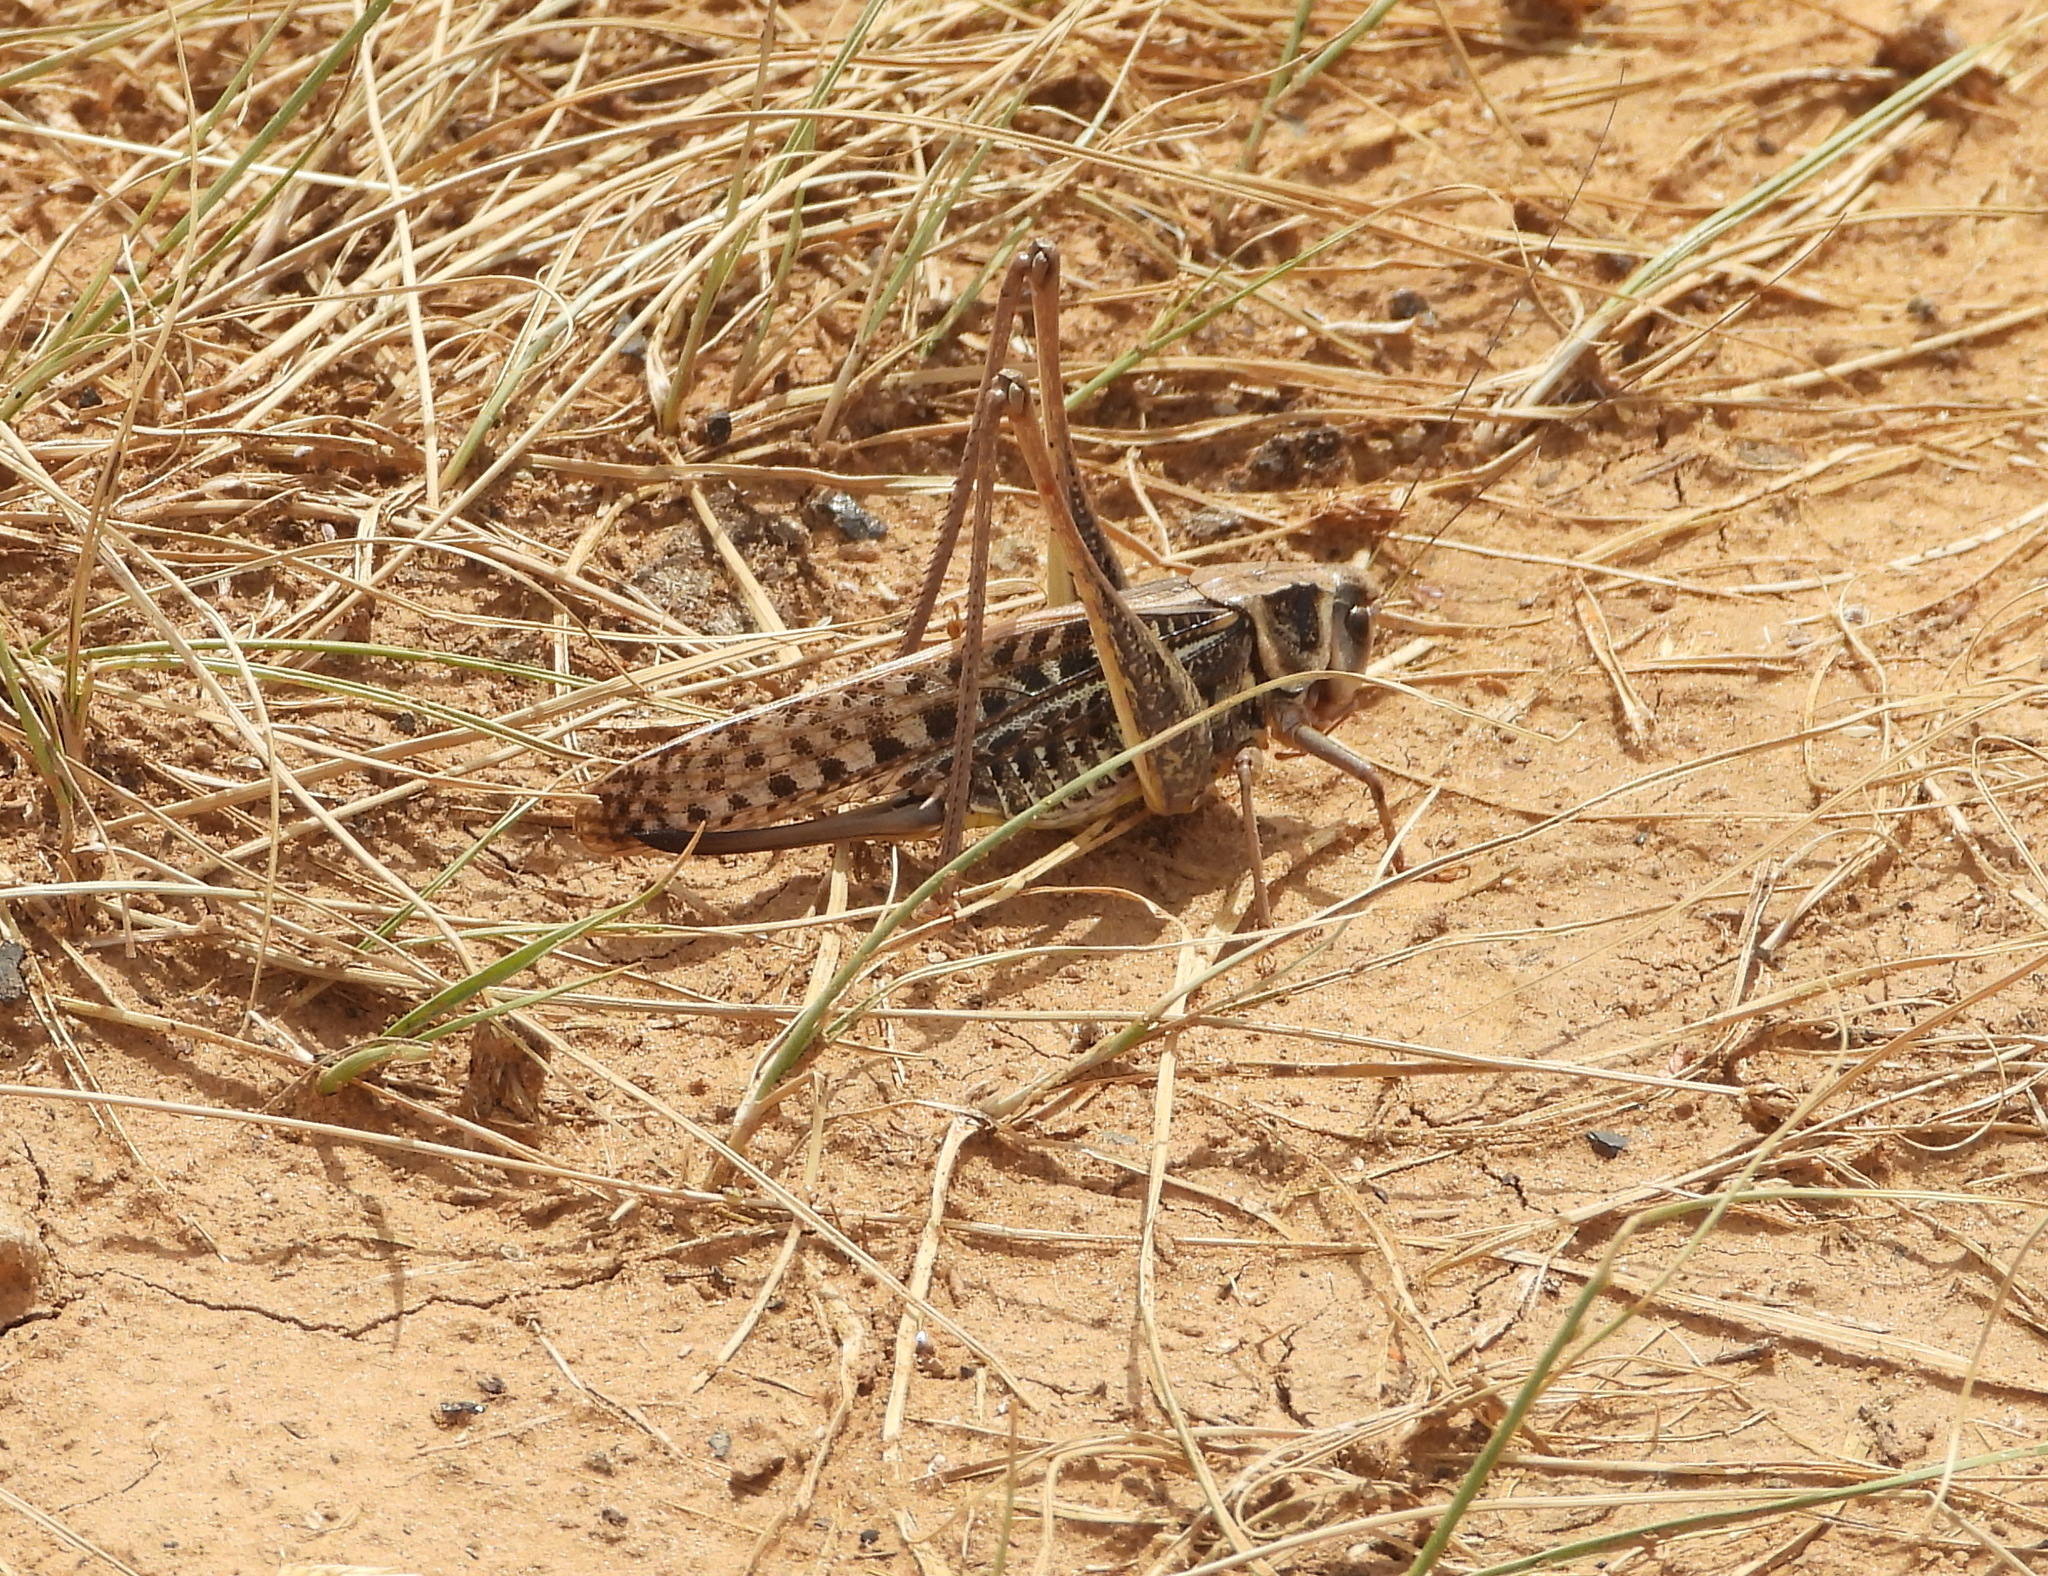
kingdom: Animalia
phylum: Arthropoda
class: Insecta
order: Orthoptera
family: Tettigoniidae
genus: Decticus
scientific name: Decticus verrucivorus
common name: Wart-biter
